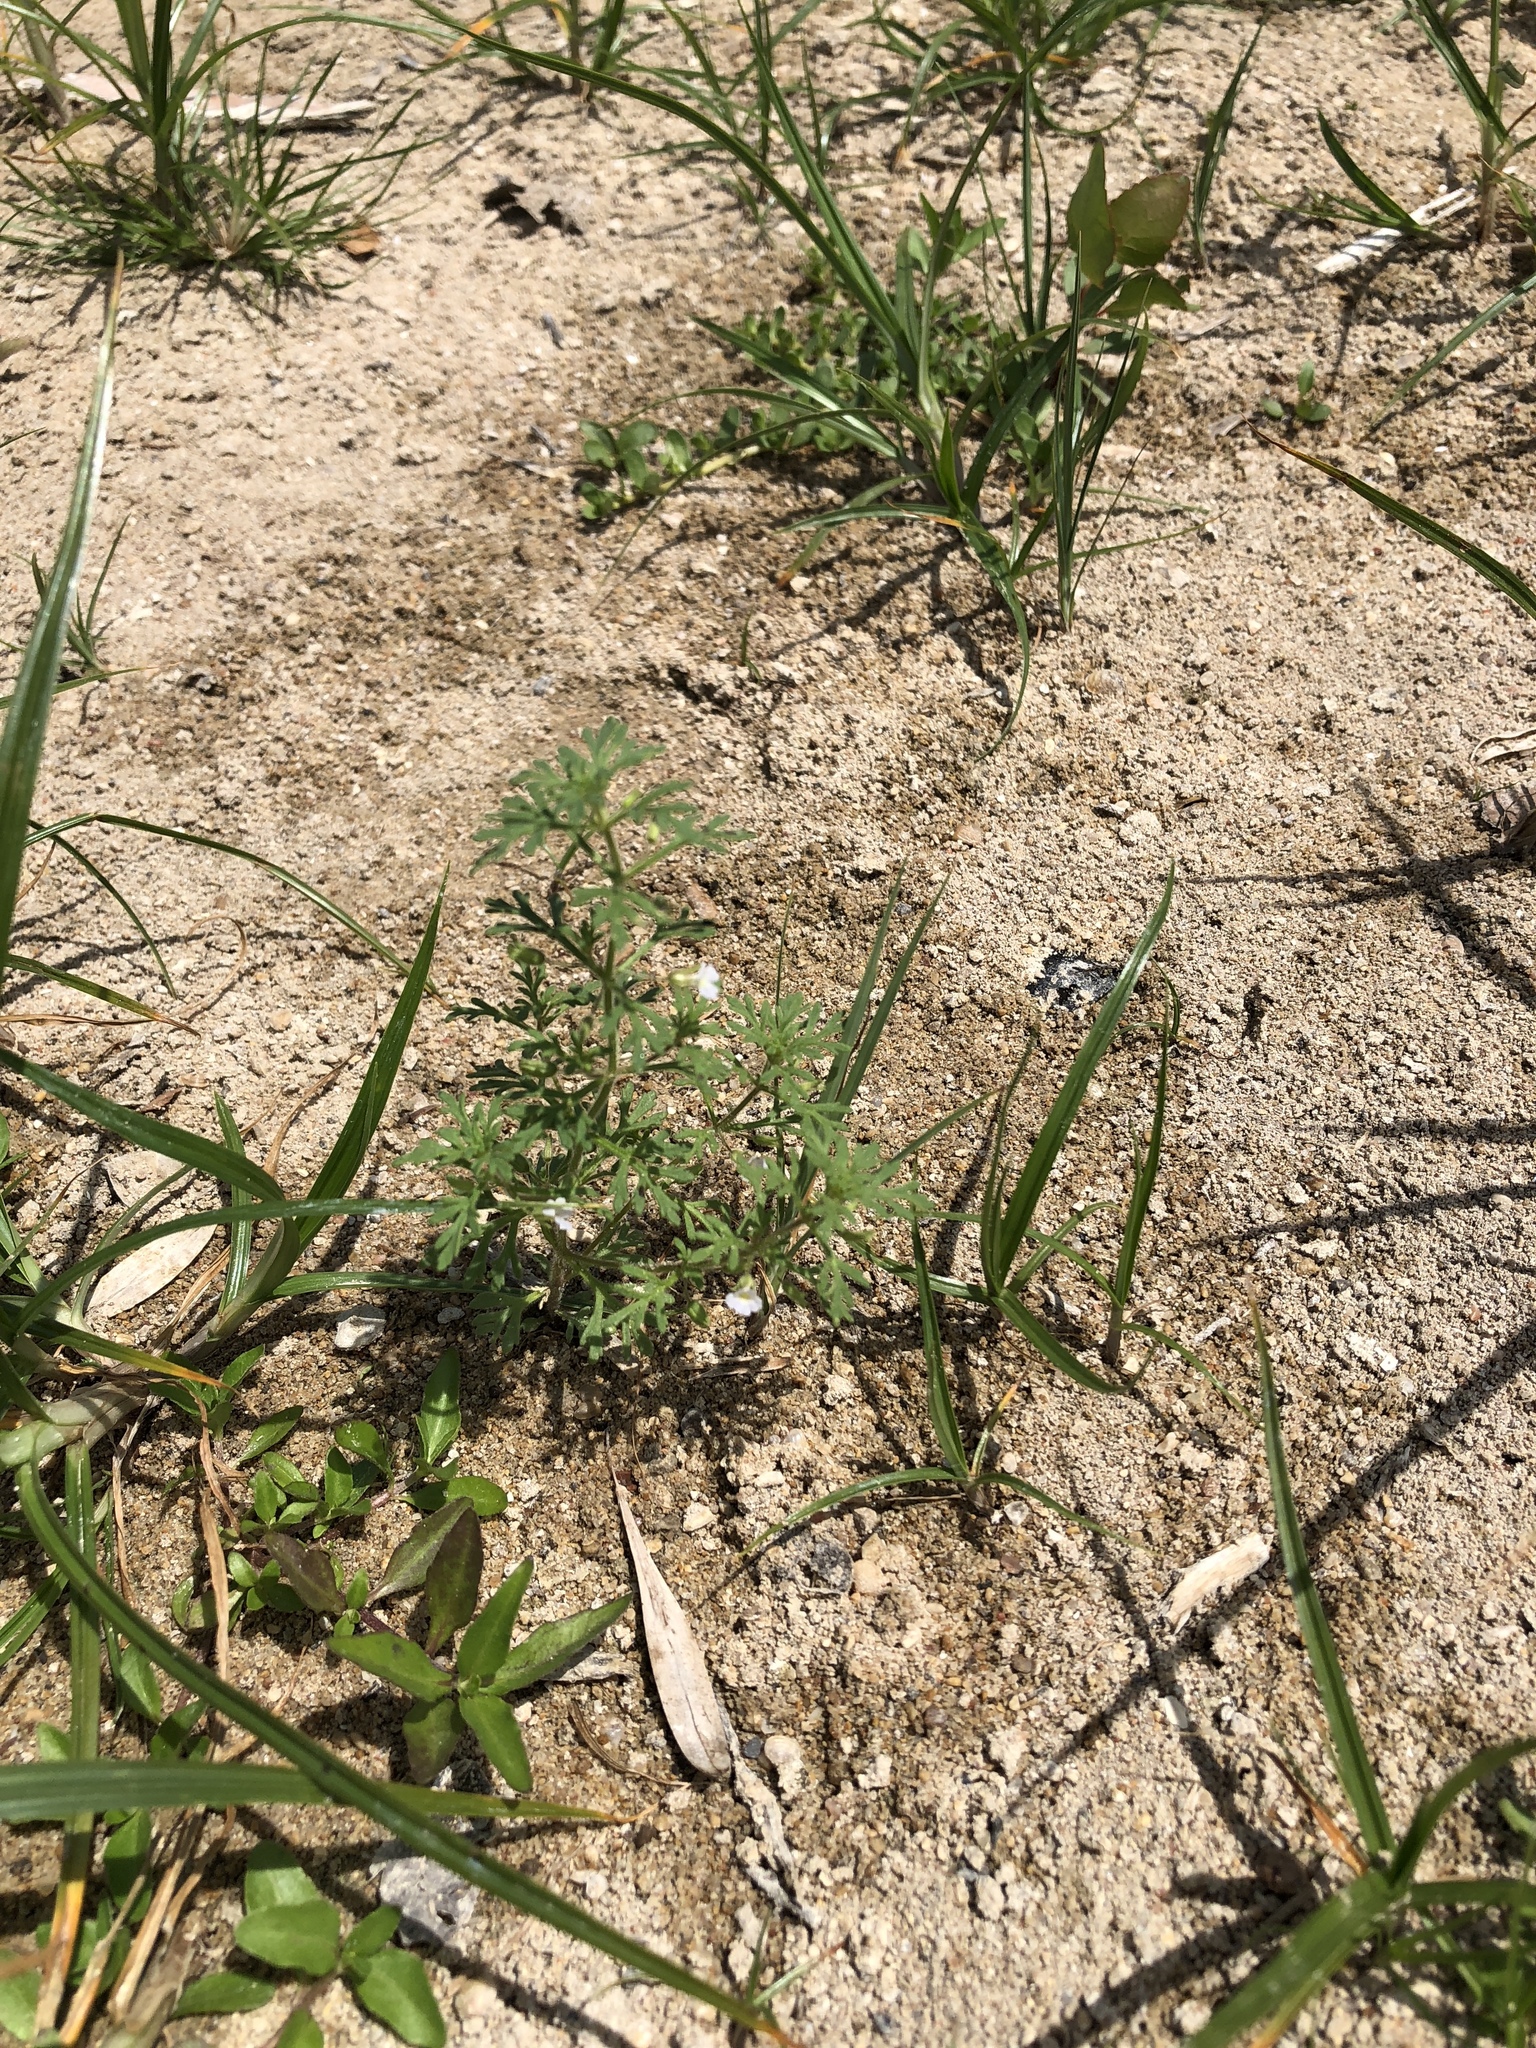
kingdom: Plantae
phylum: Tracheophyta
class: Magnoliopsida
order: Lamiales
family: Plantaginaceae
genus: Leucospora
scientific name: Leucospora multifida
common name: Narrow-leaf paleseed
